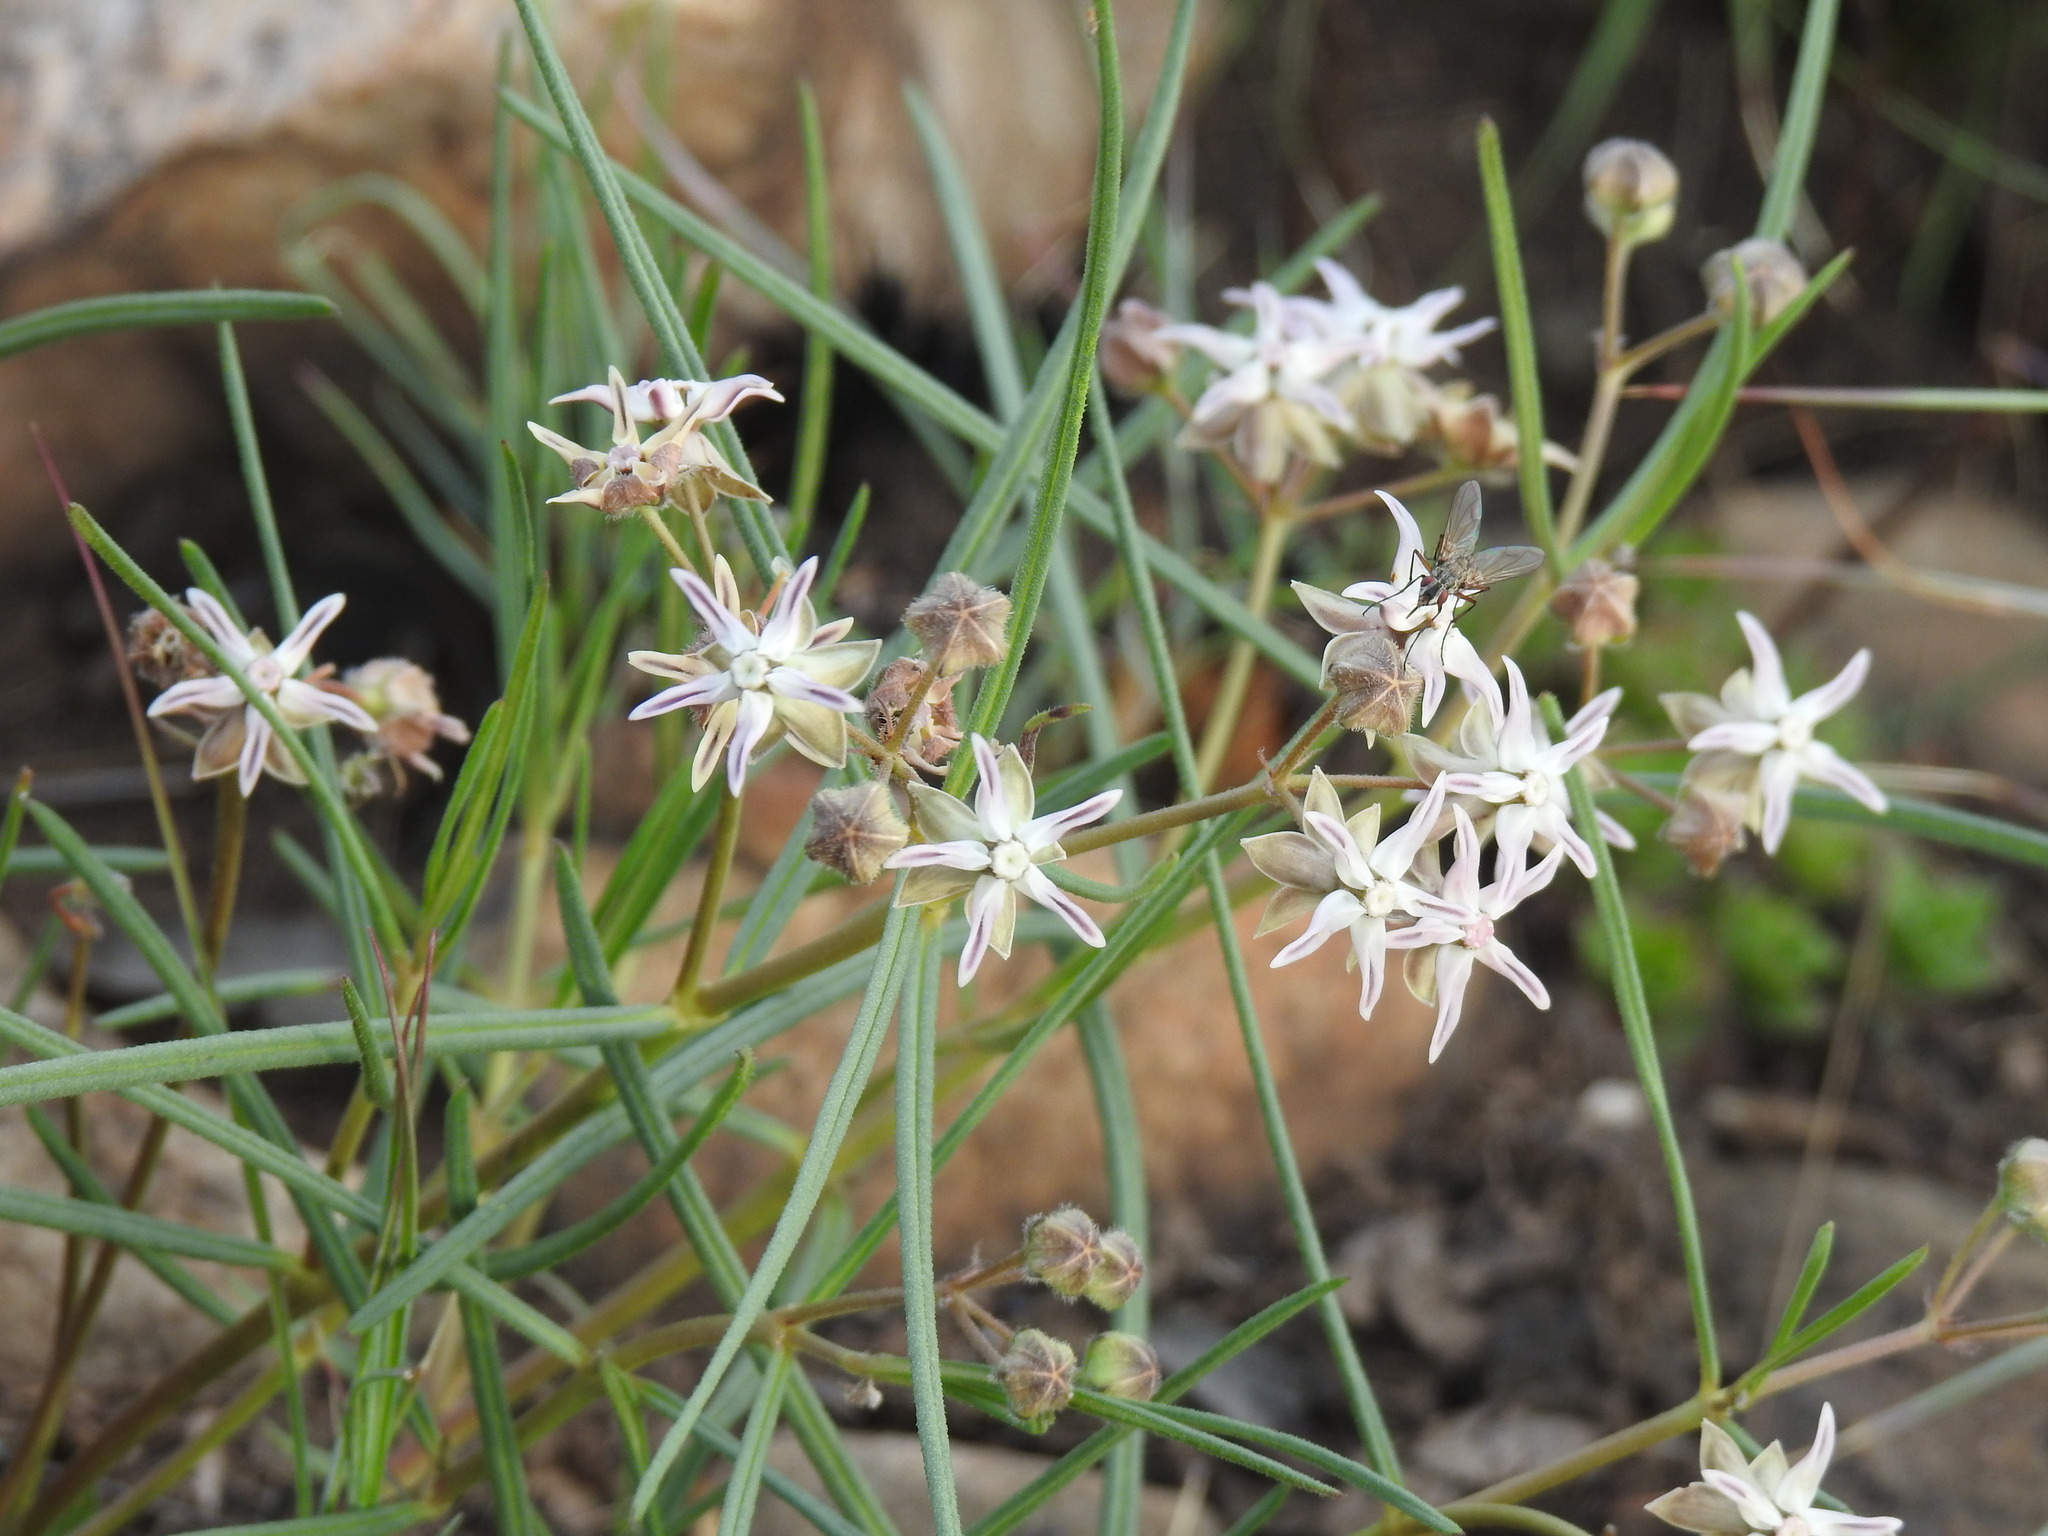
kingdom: Plantae
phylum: Tracheophyta
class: Magnoliopsida
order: Gentianales
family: Apocynaceae
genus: Asclepias
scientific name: Asclepias stellifera
